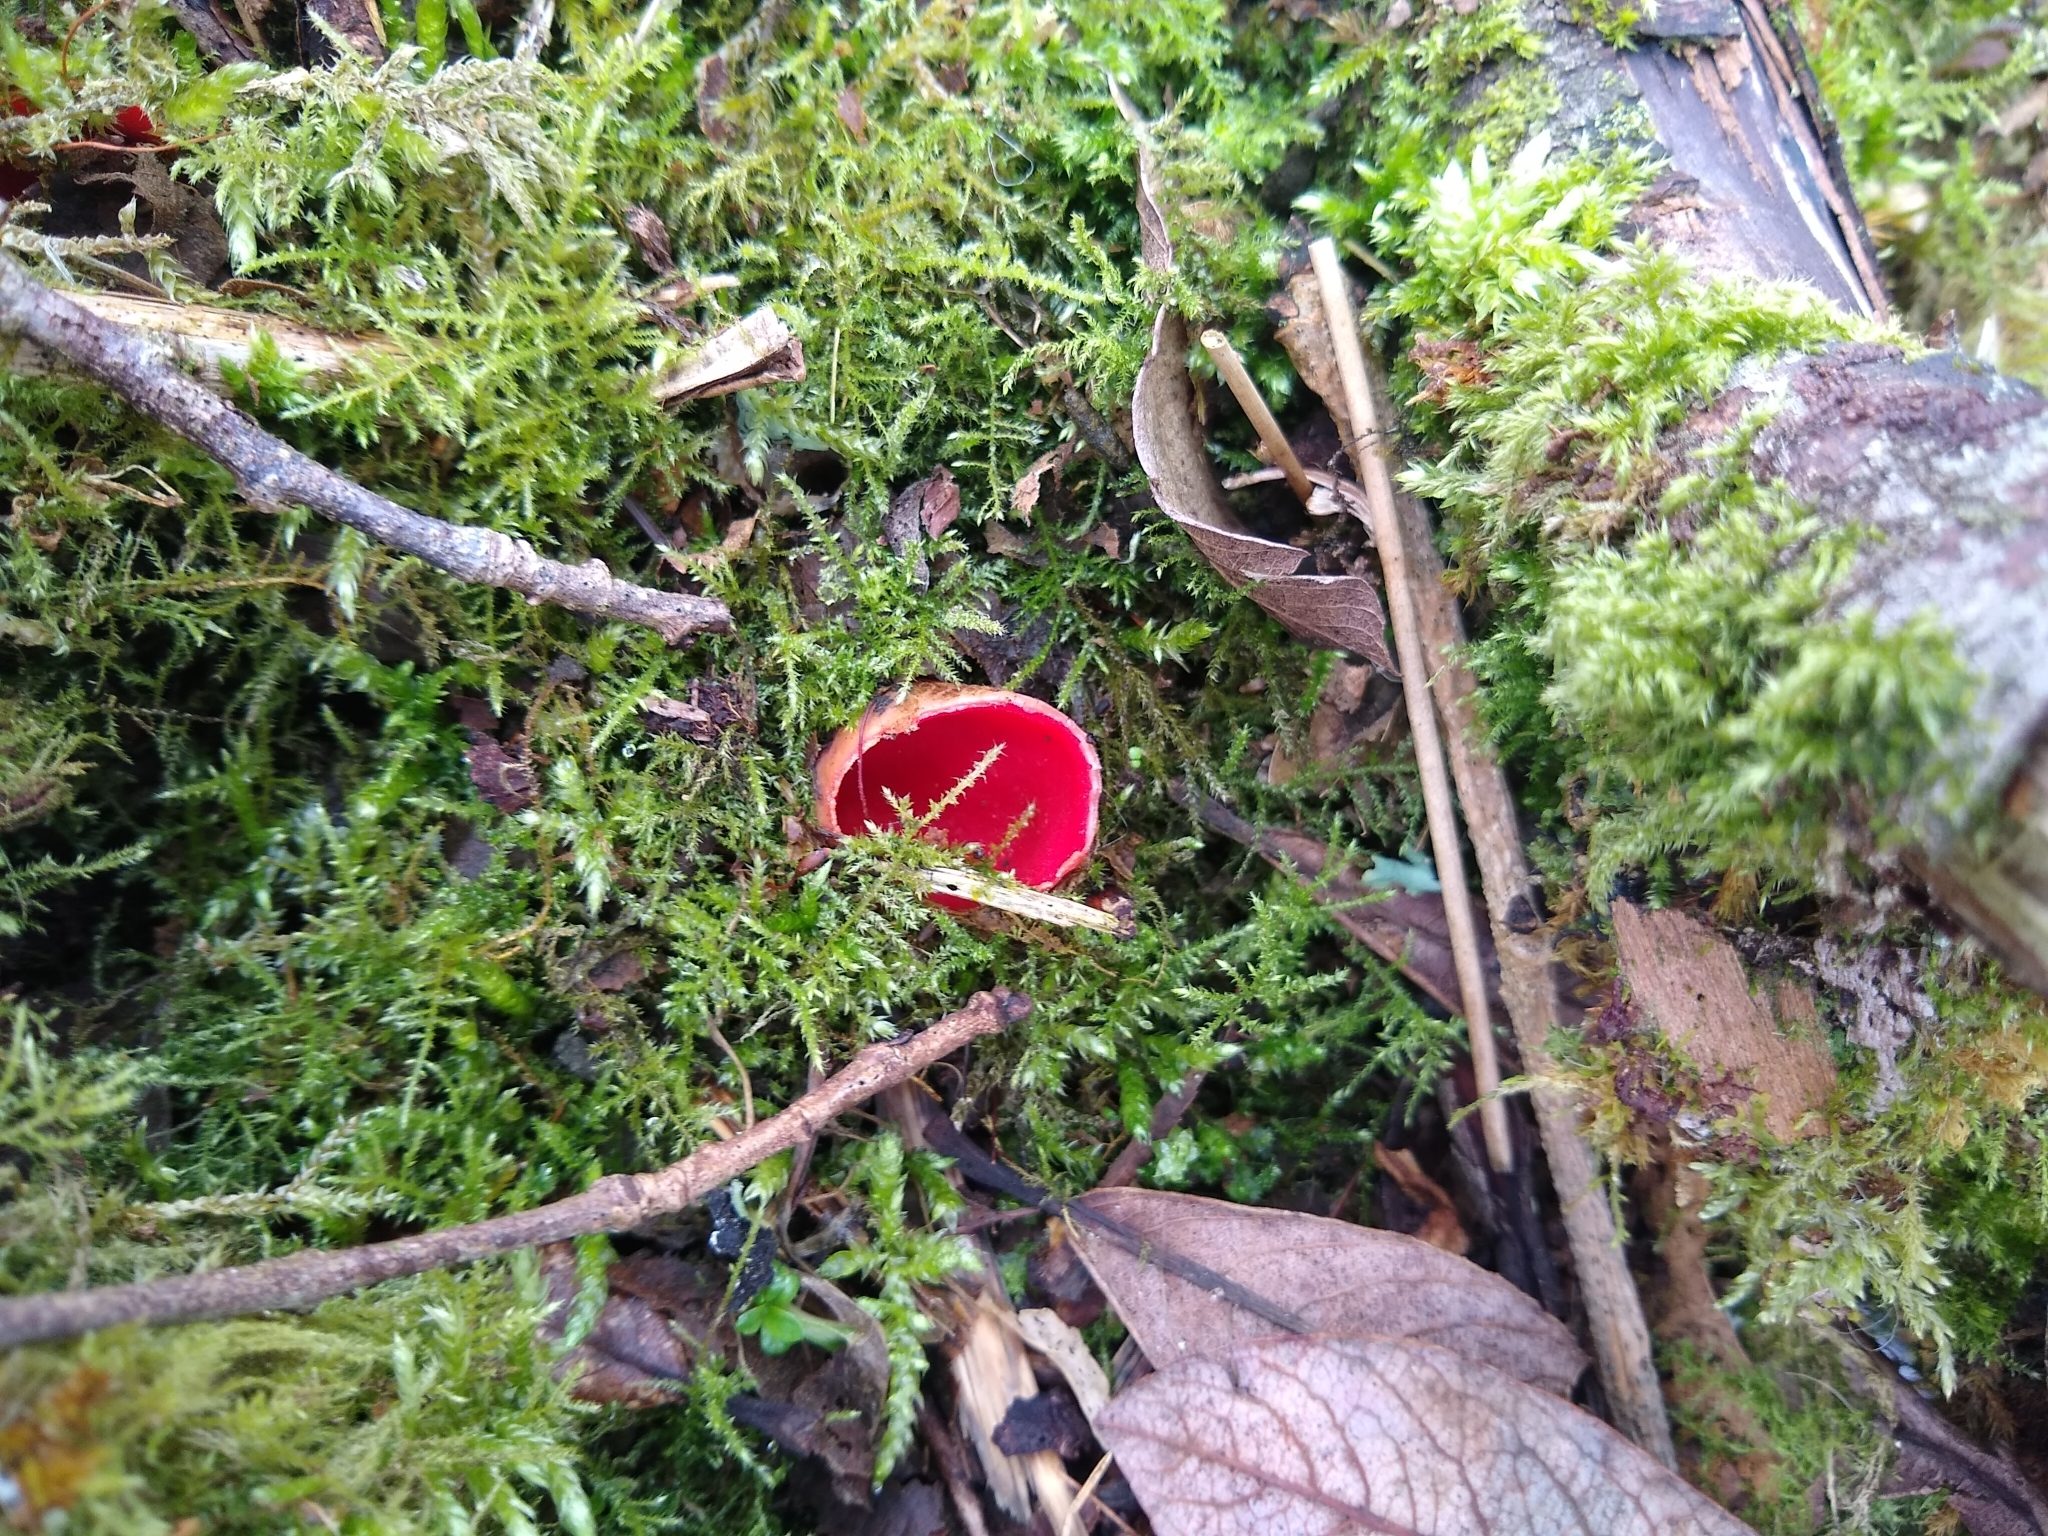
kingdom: Fungi
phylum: Ascomycota
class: Pezizomycetes
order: Pezizales
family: Sarcoscyphaceae
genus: Sarcoscypha
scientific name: Sarcoscypha
